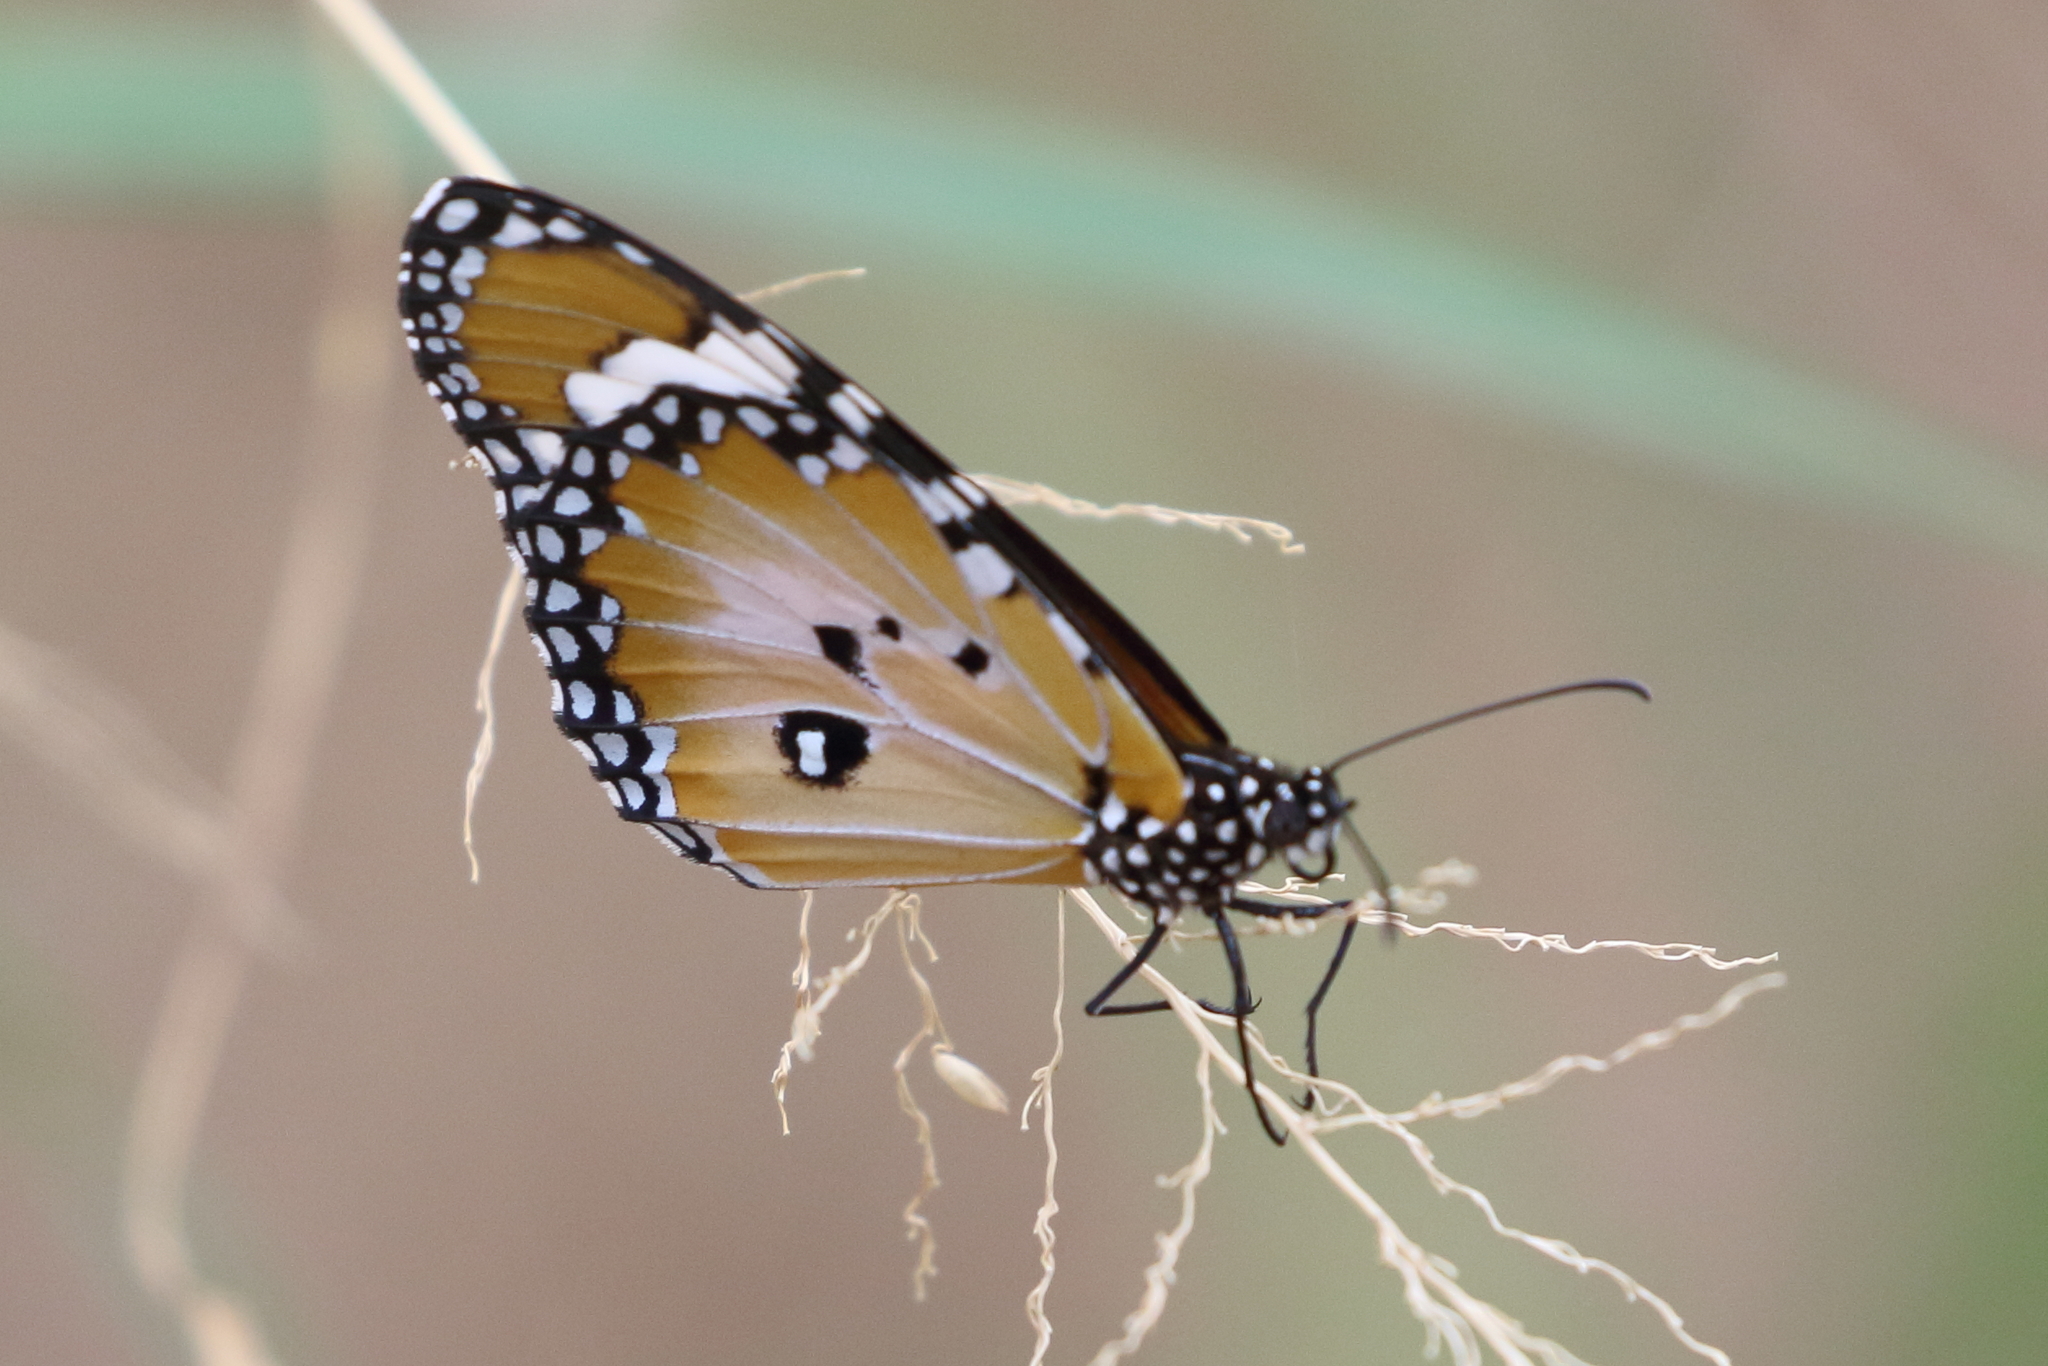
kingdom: Animalia
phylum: Arthropoda
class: Insecta
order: Lepidoptera
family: Nymphalidae
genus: Danaus
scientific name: Danaus chrysippus
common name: Plain tiger
